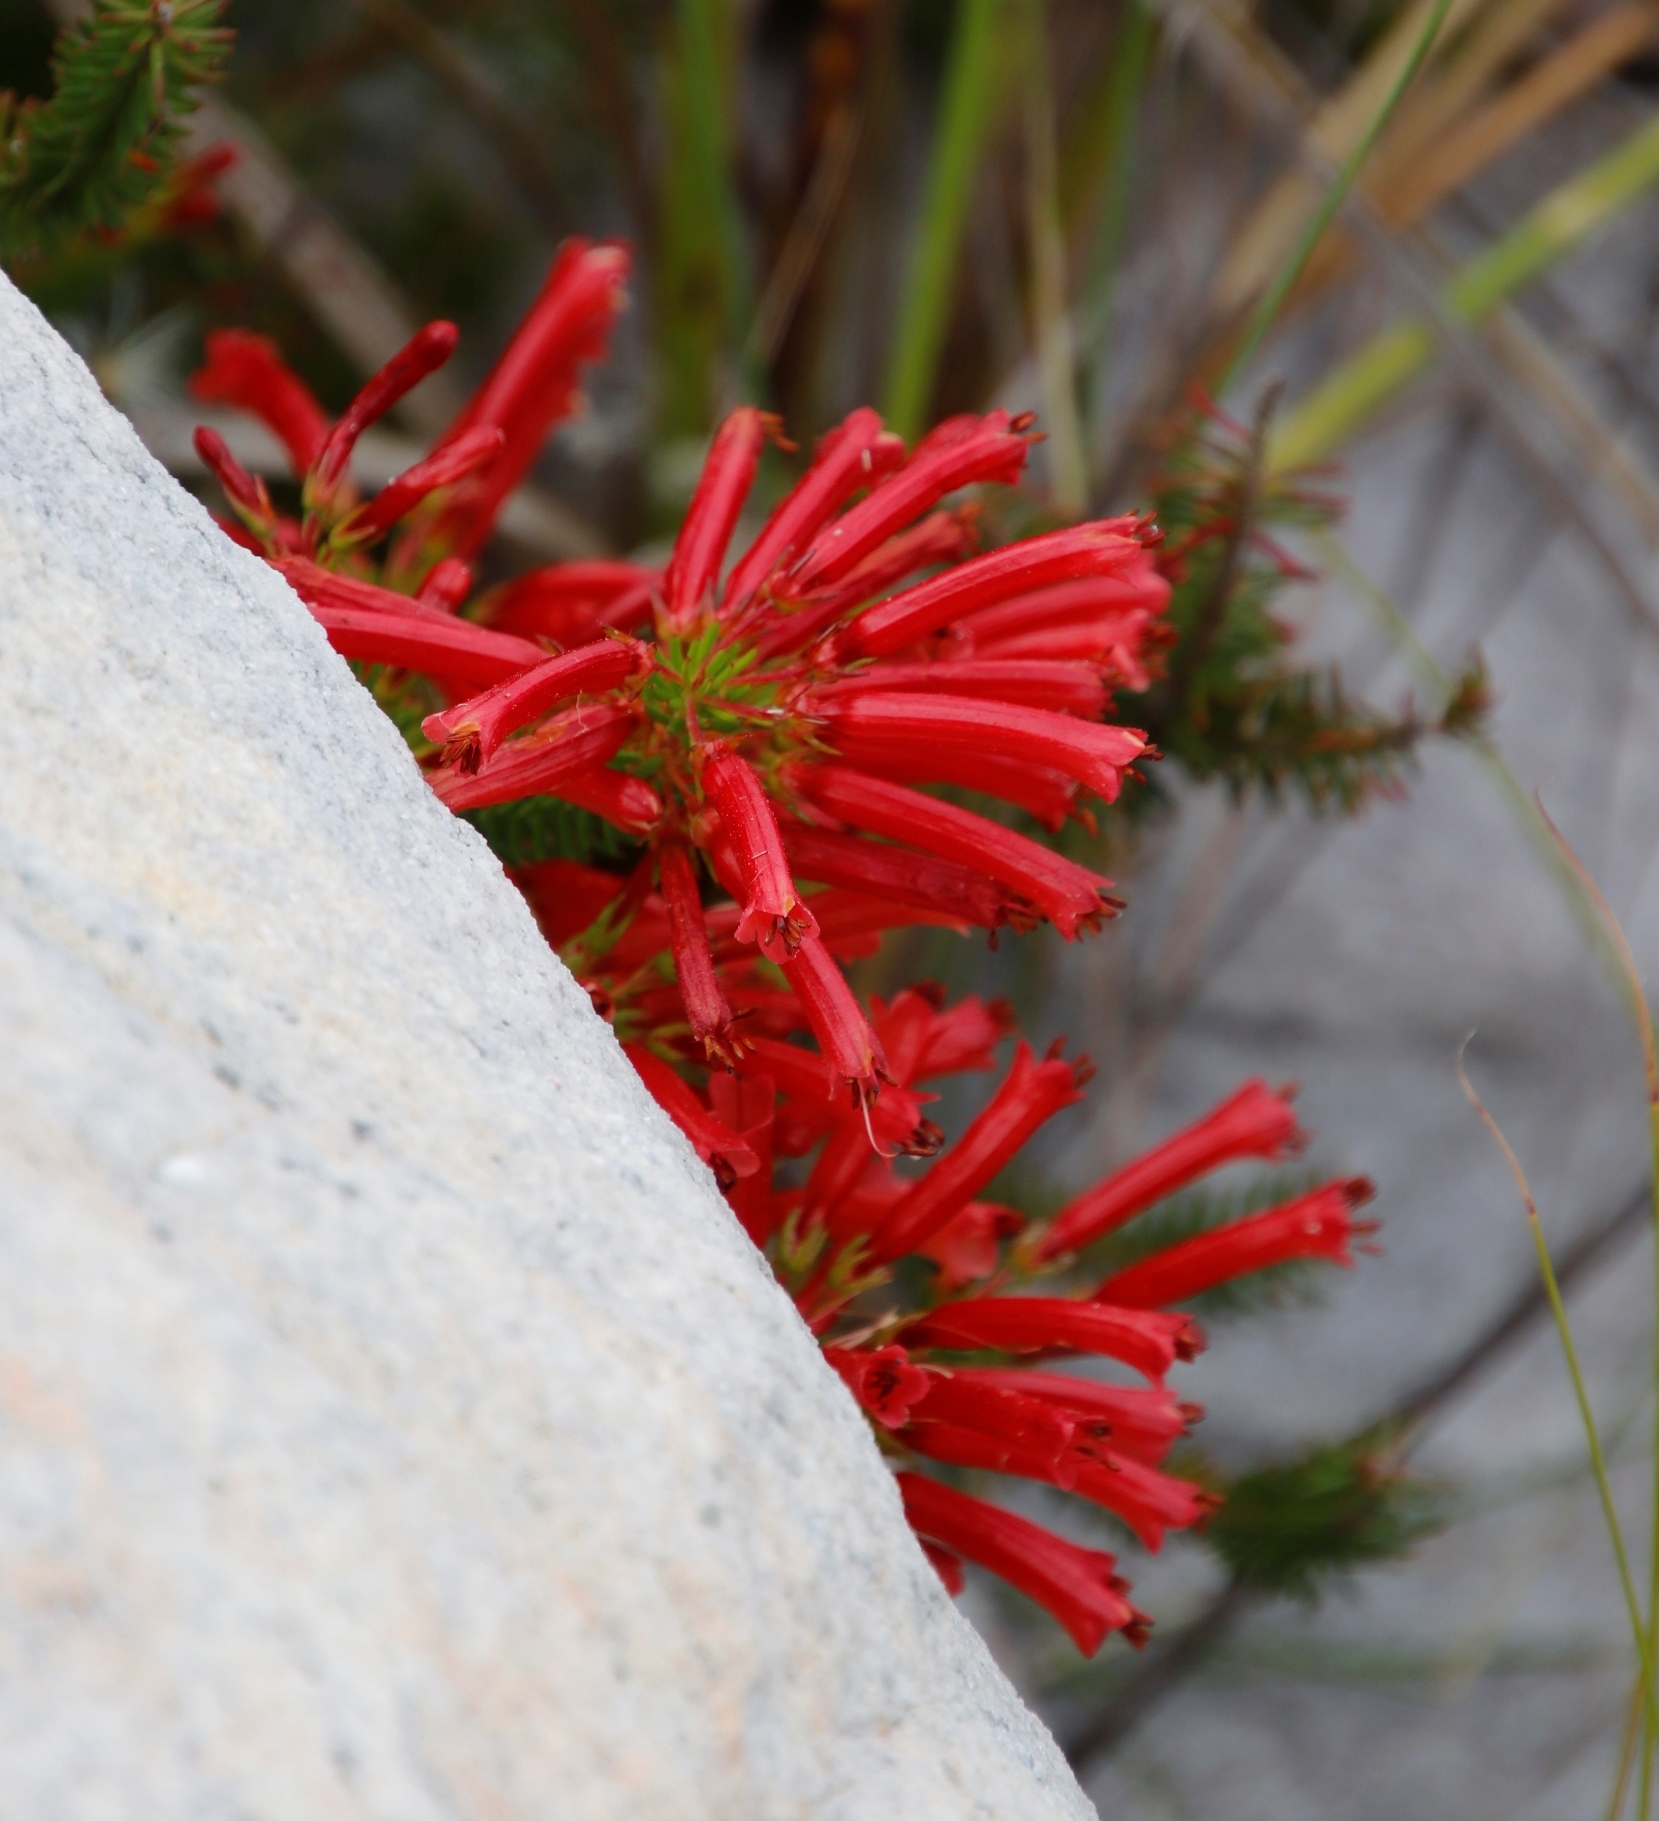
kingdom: Plantae
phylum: Tracheophyta
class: Magnoliopsida
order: Ericales
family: Ericaceae
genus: Erica
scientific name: Erica nevillei
